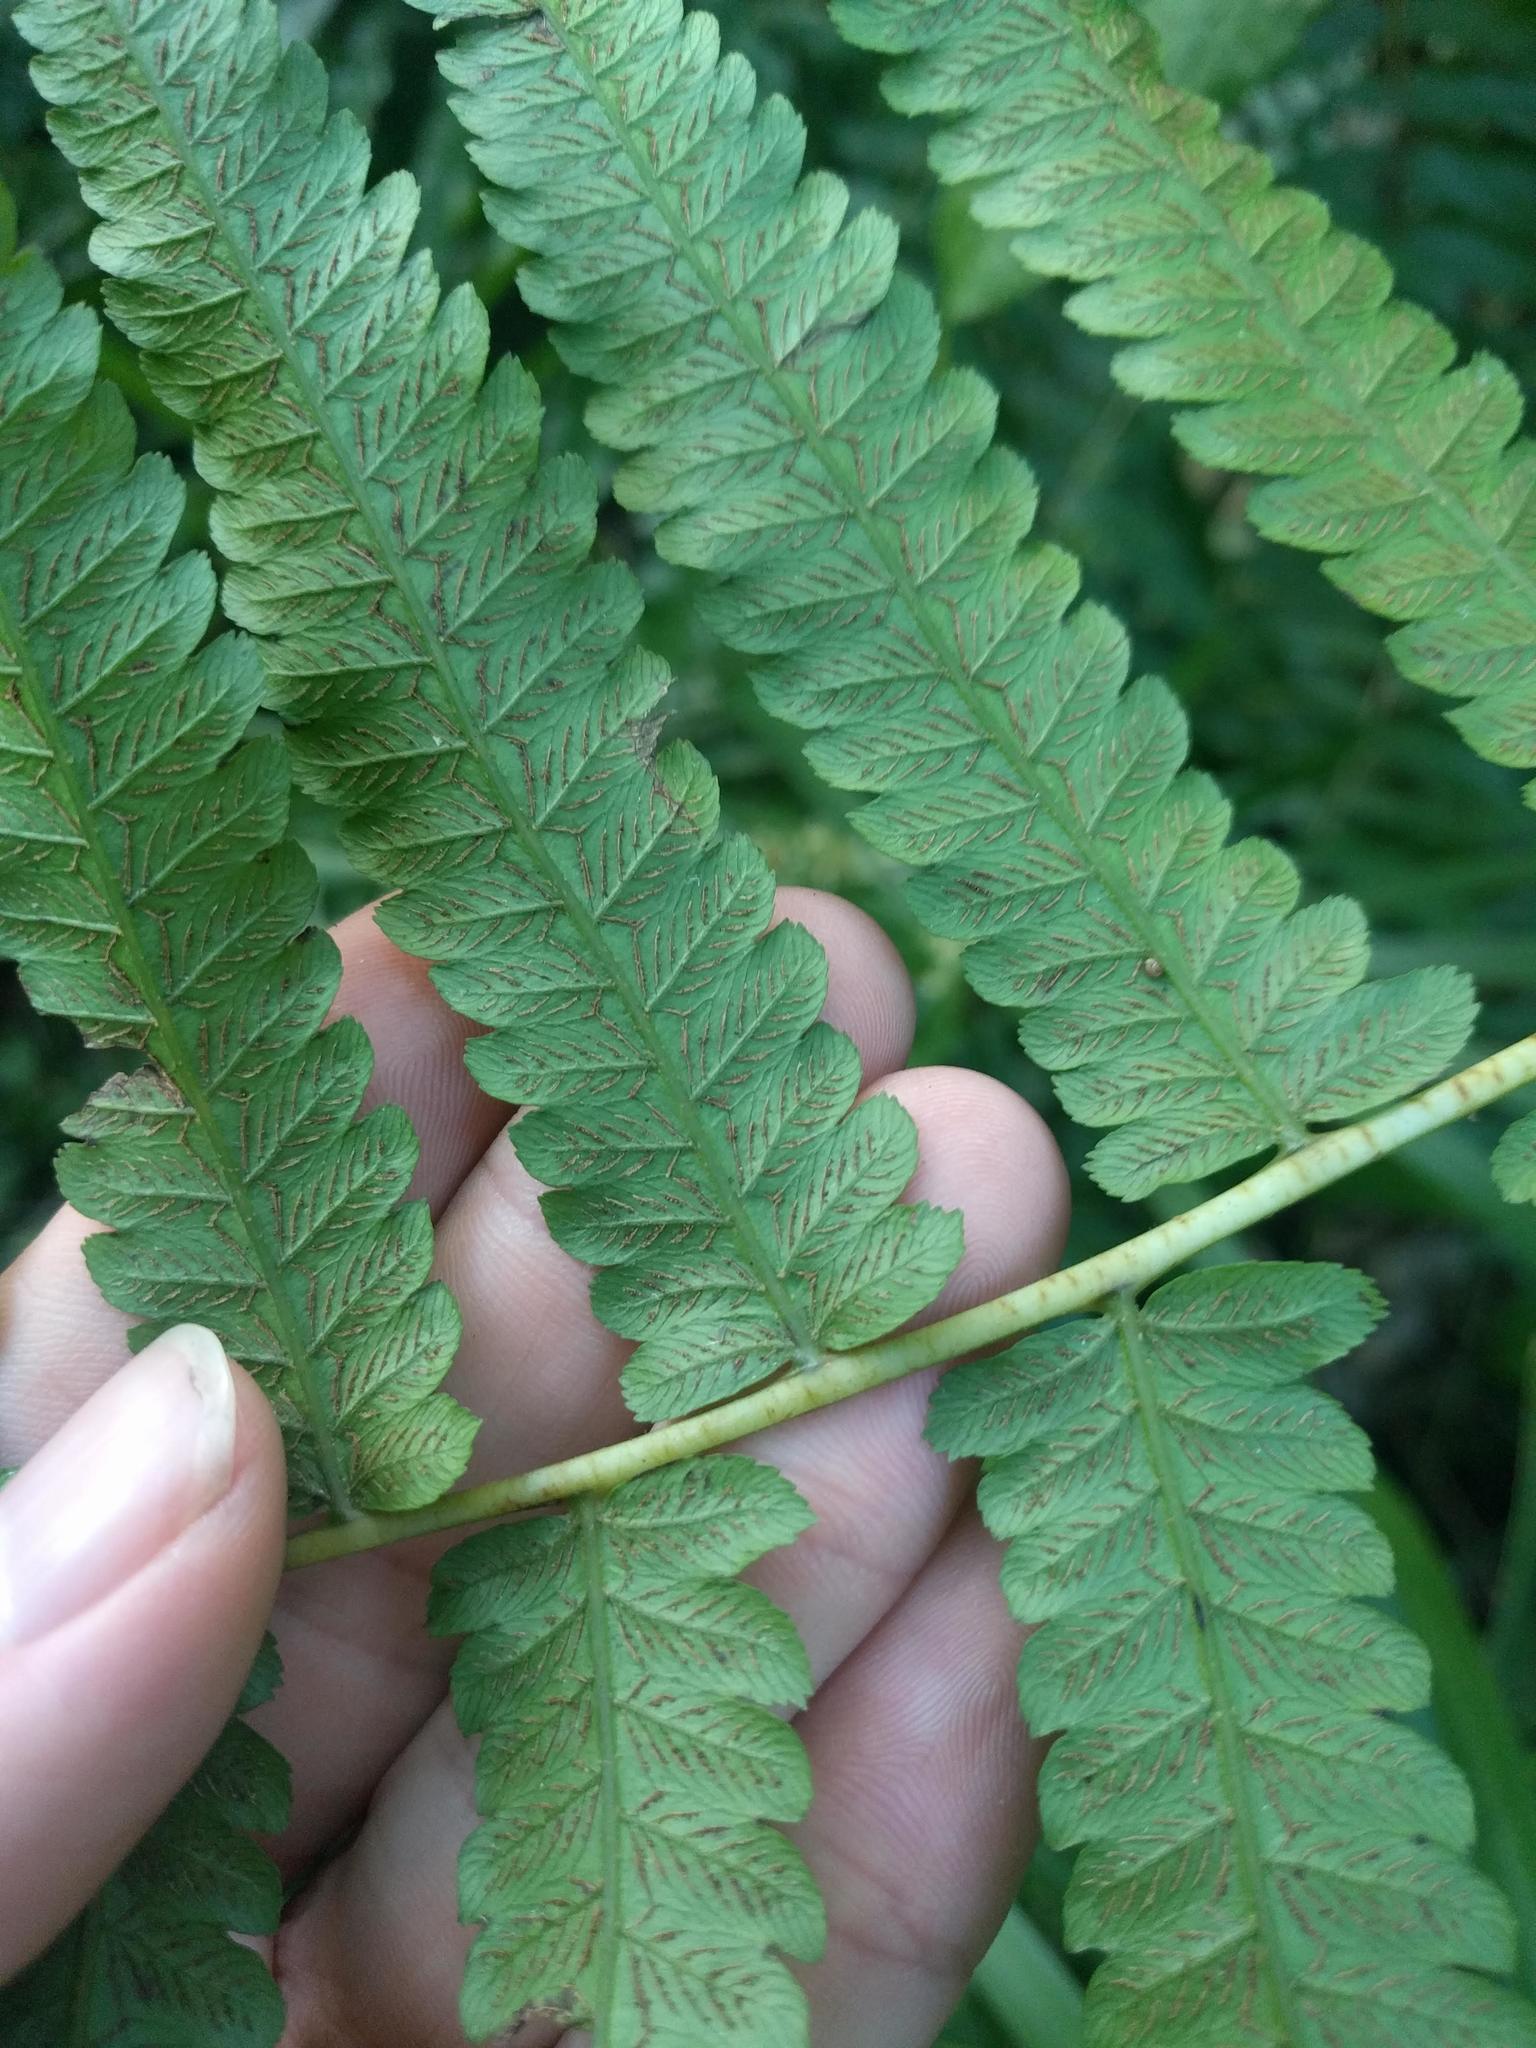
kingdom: Plantae
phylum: Tracheophyta
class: Polypodiopsida
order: Polypodiales
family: Athyriaceae
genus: Diplazium
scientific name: Diplazium esculentum
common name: Vegetable fern
